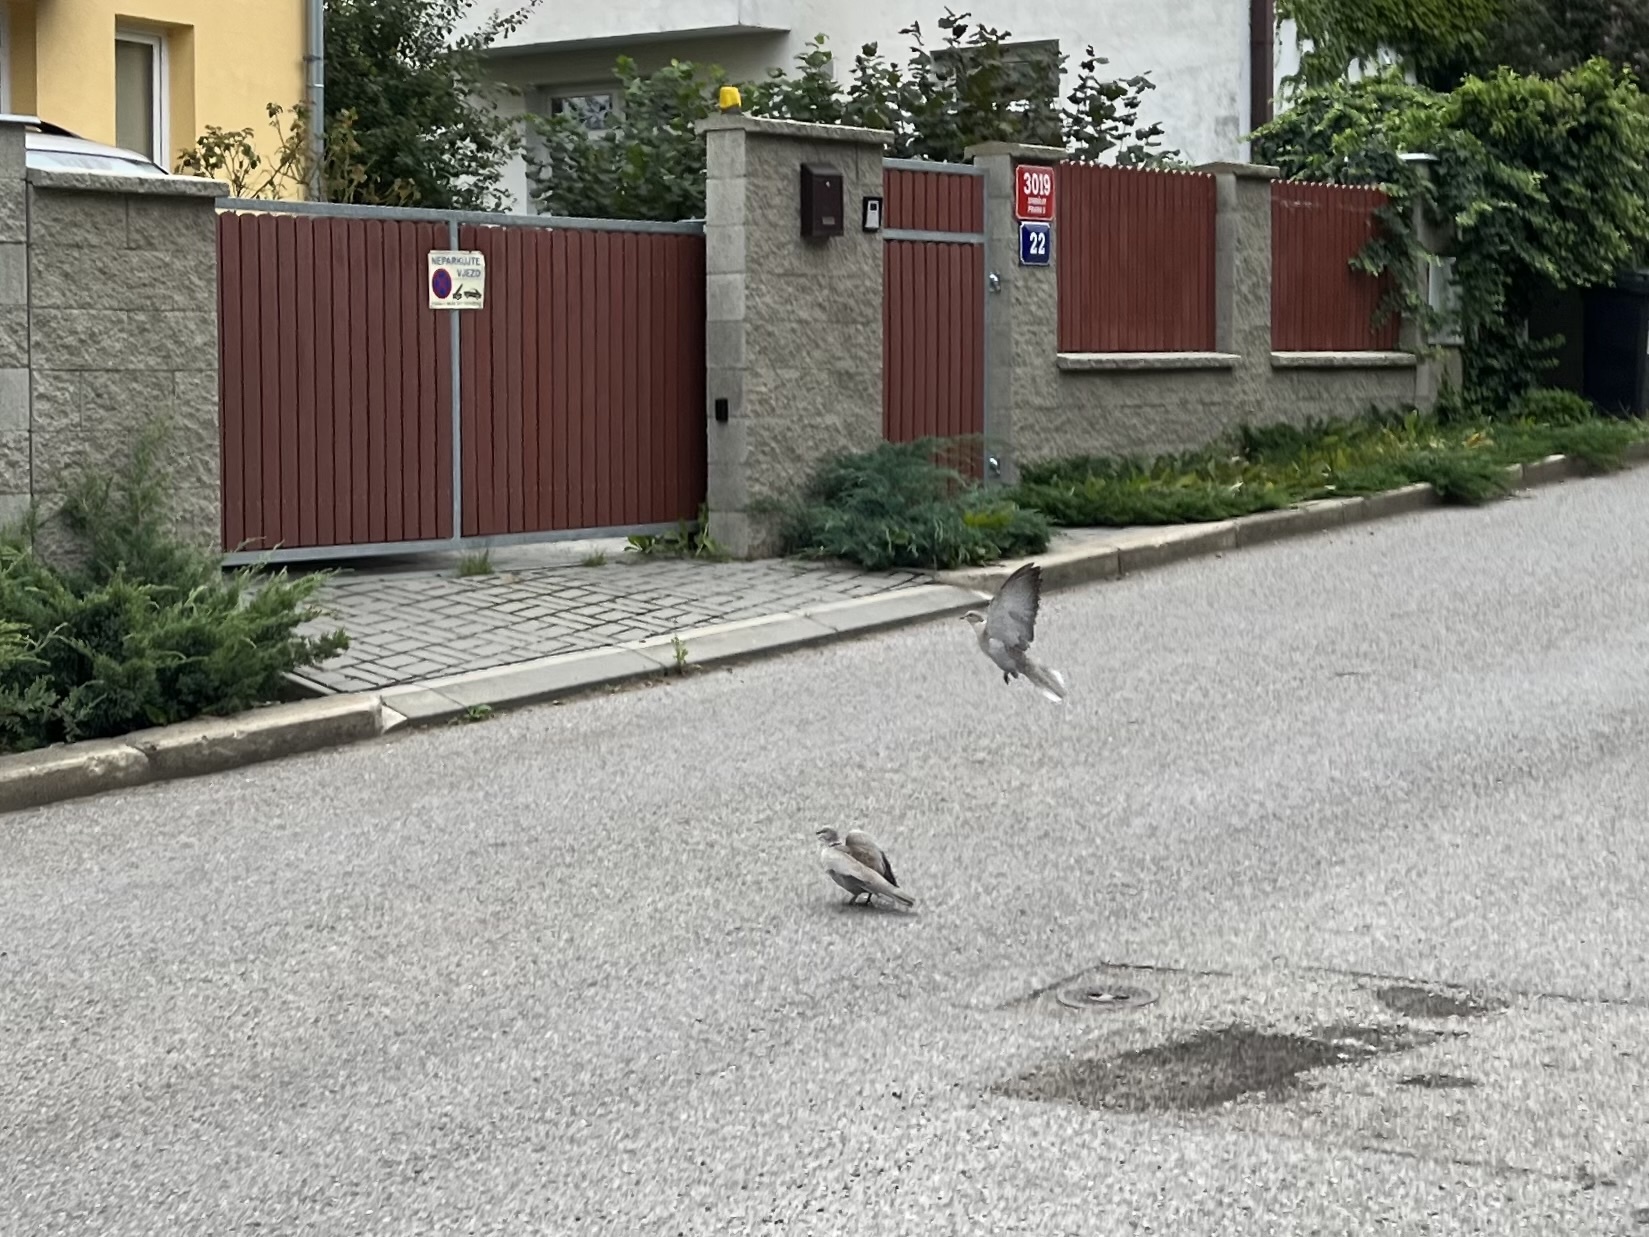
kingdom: Animalia
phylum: Chordata
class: Aves
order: Columbiformes
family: Columbidae
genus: Streptopelia
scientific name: Streptopelia decaocto
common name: Eurasian collared dove
